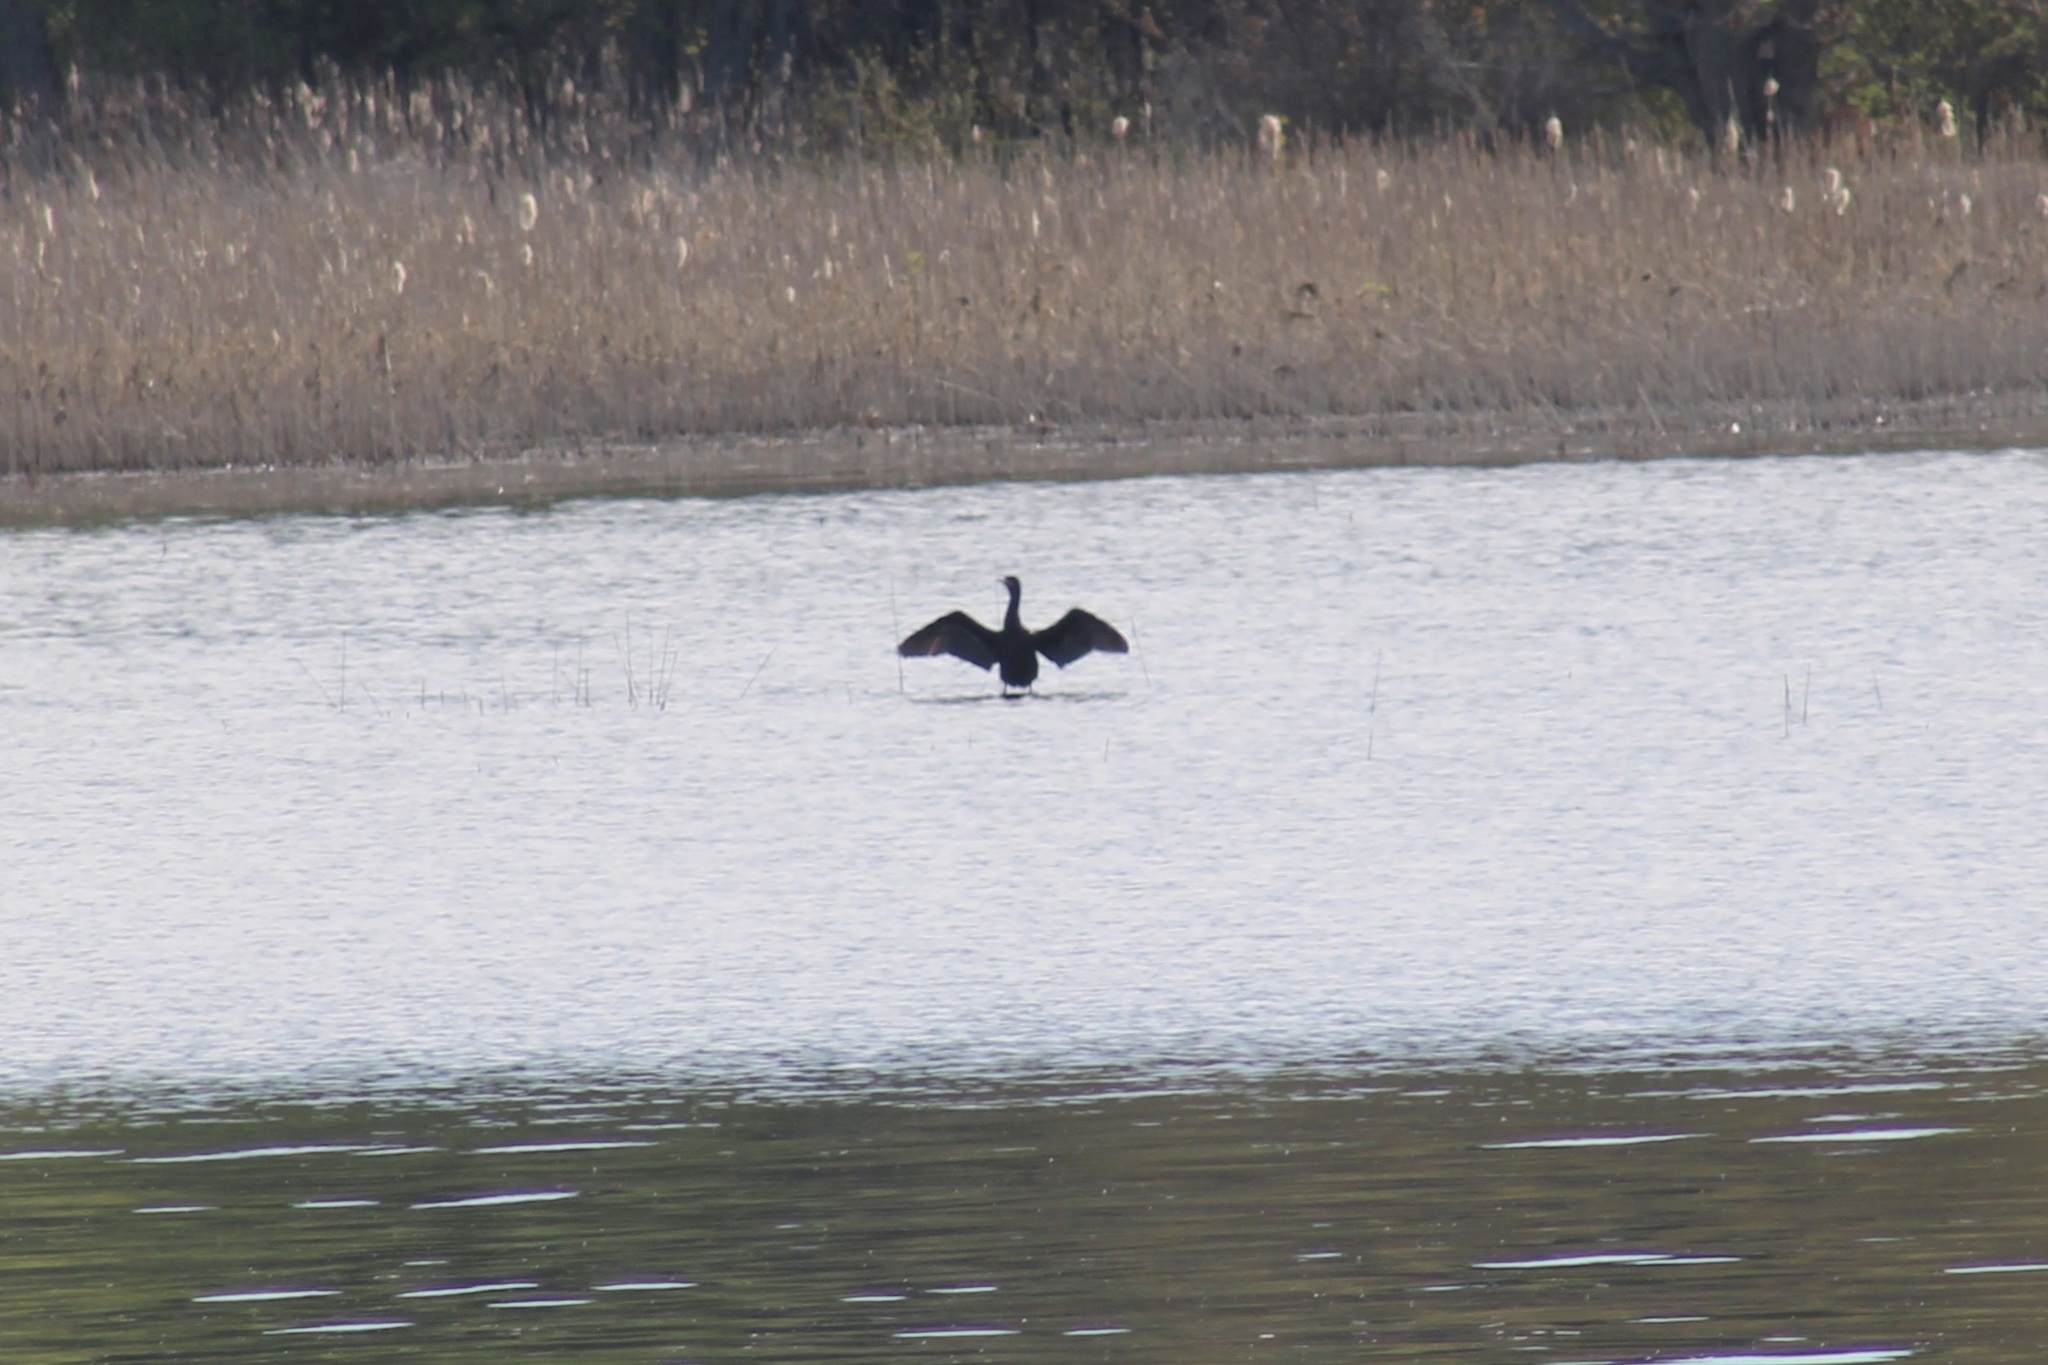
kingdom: Animalia
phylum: Chordata
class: Aves
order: Suliformes
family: Phalacrocoracidae
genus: Phalacrocorax
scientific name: Phalacrocorax auritus
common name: Double-crested cormorant
